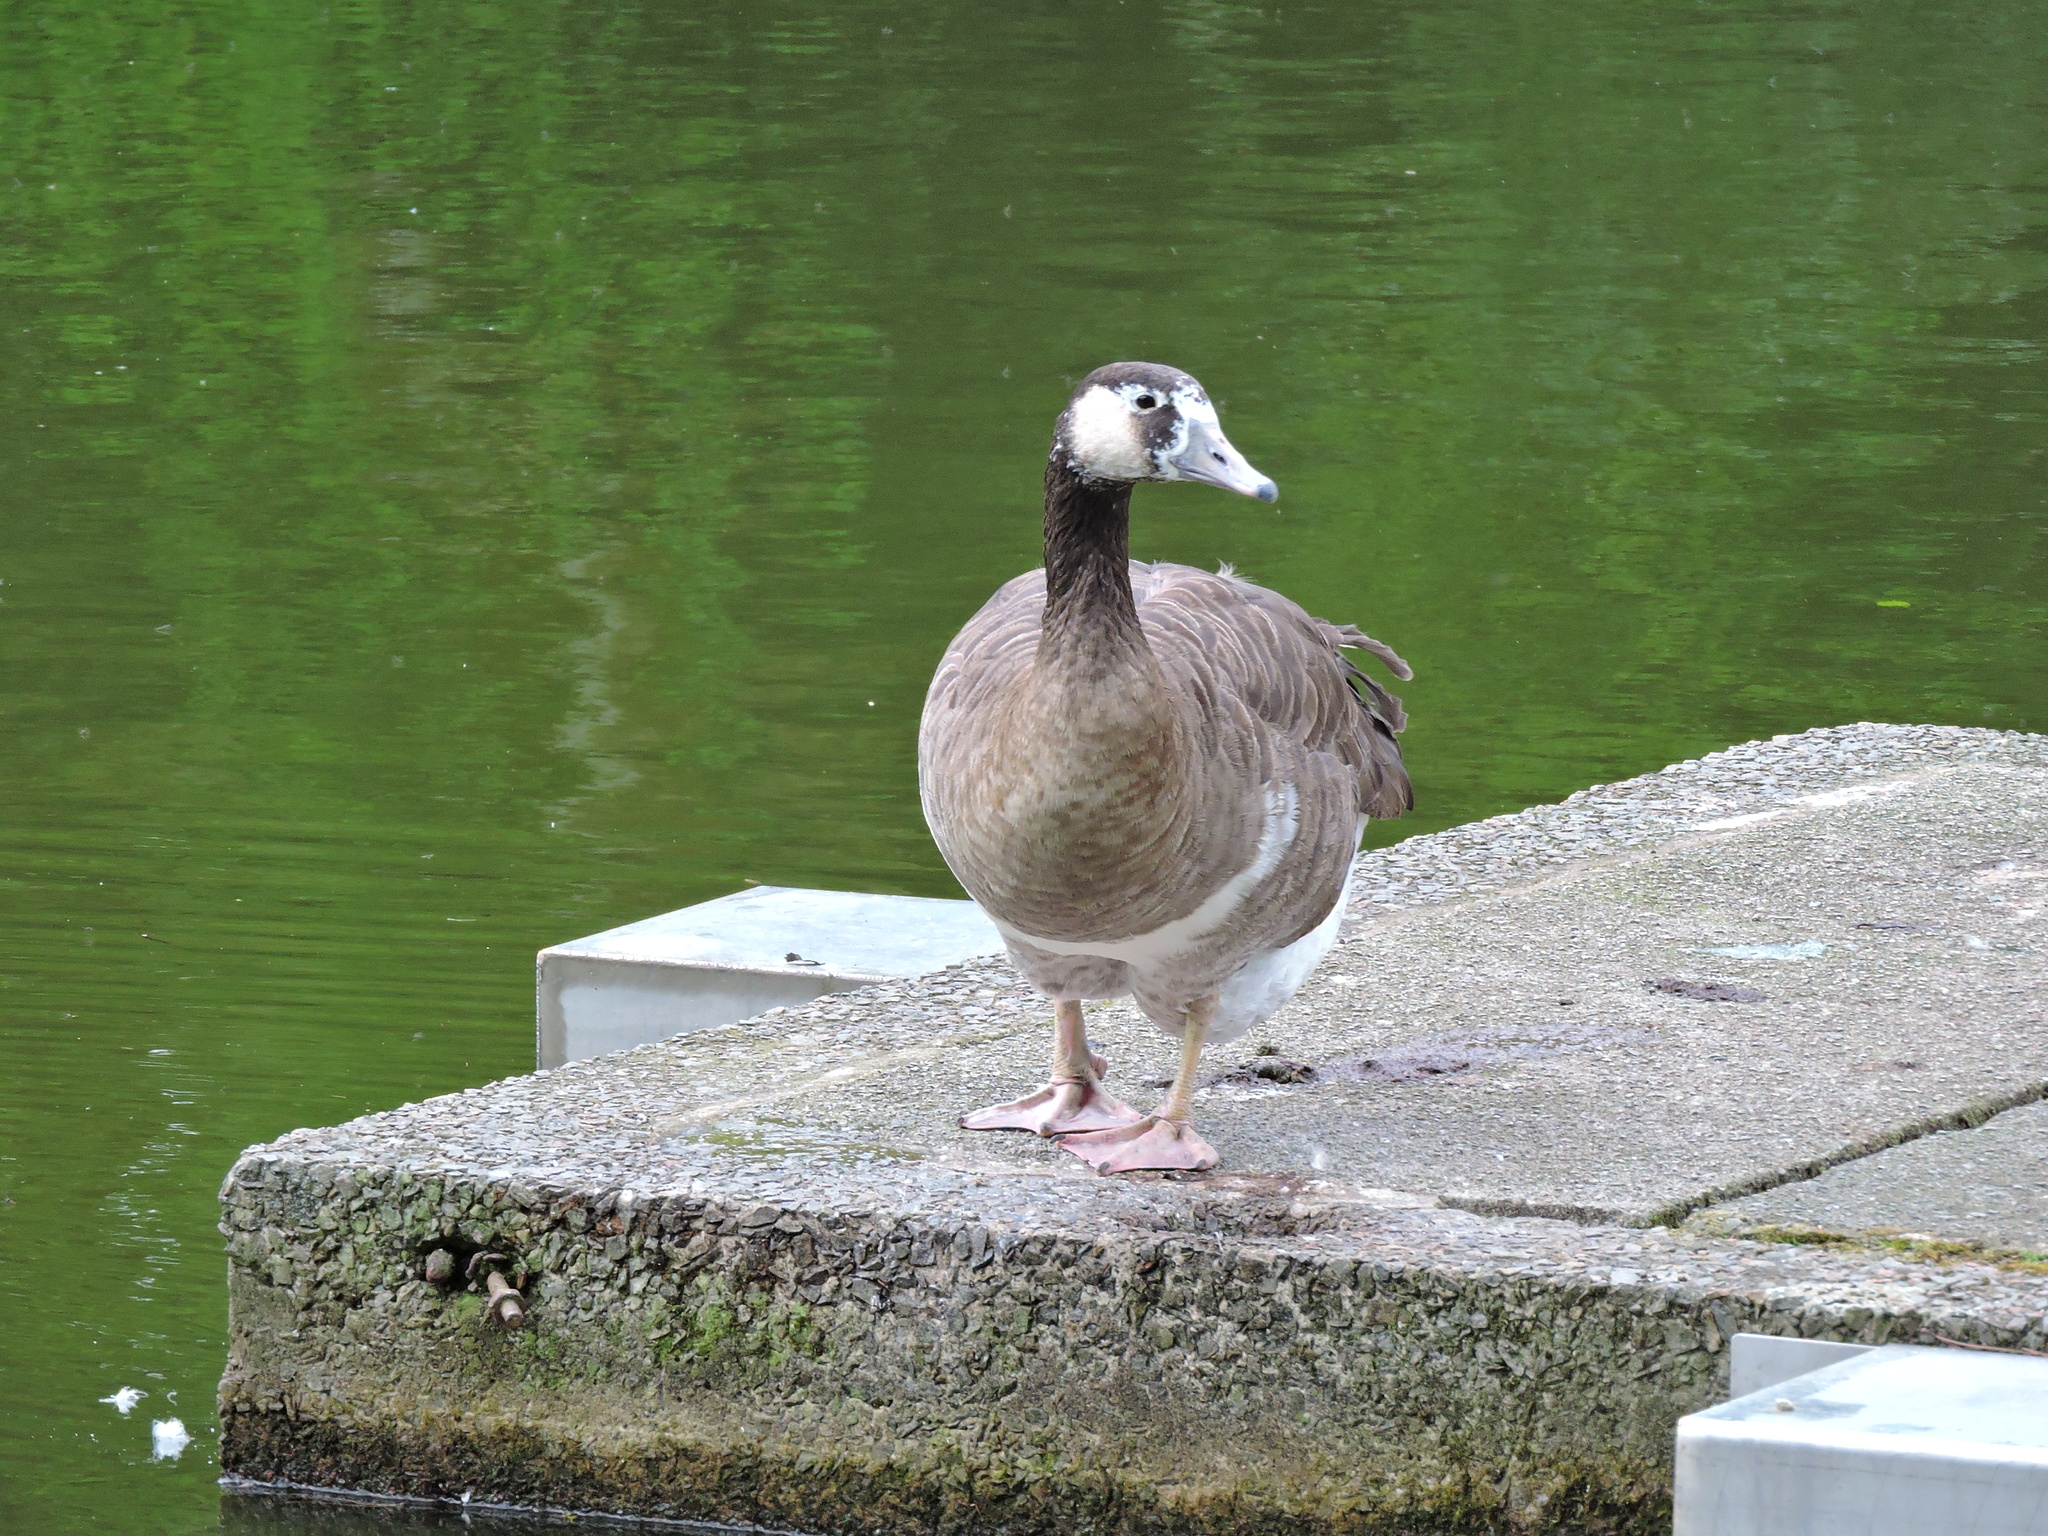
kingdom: Animalia
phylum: Chordata
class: Aves
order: Anseriformes
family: Anatidae
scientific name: Anatidae
